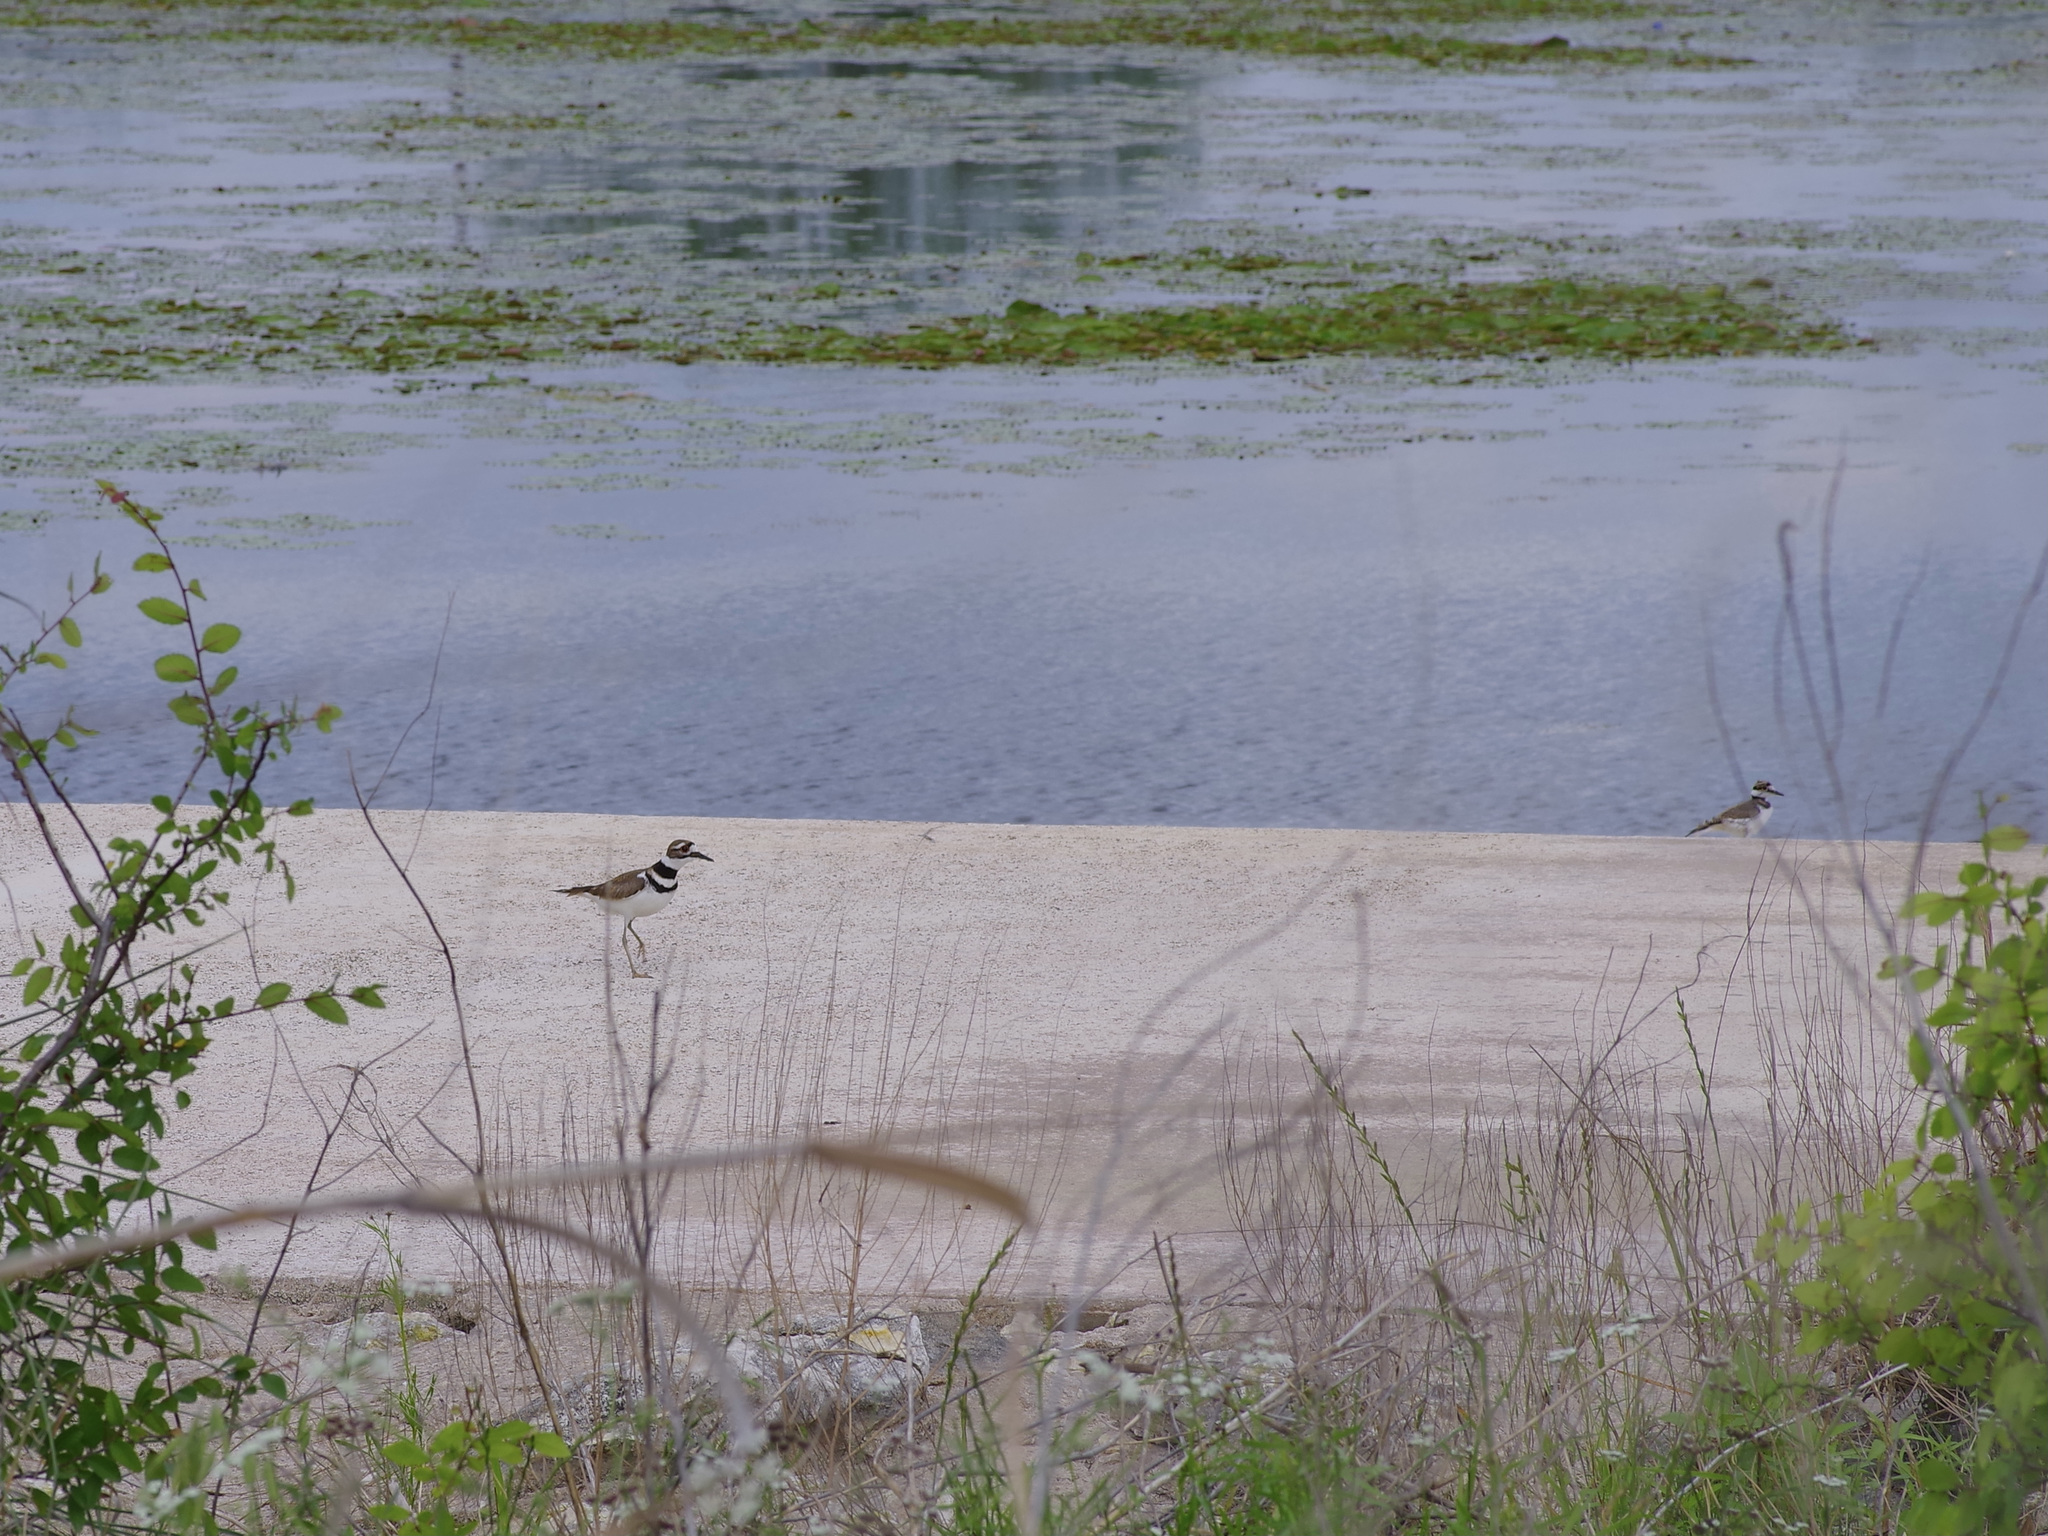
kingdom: Animalia
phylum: Chordata
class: Aves
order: Charadriiformes
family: Charadriidae
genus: Charadrius
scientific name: Charadrius vociferus
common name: Killdeer
